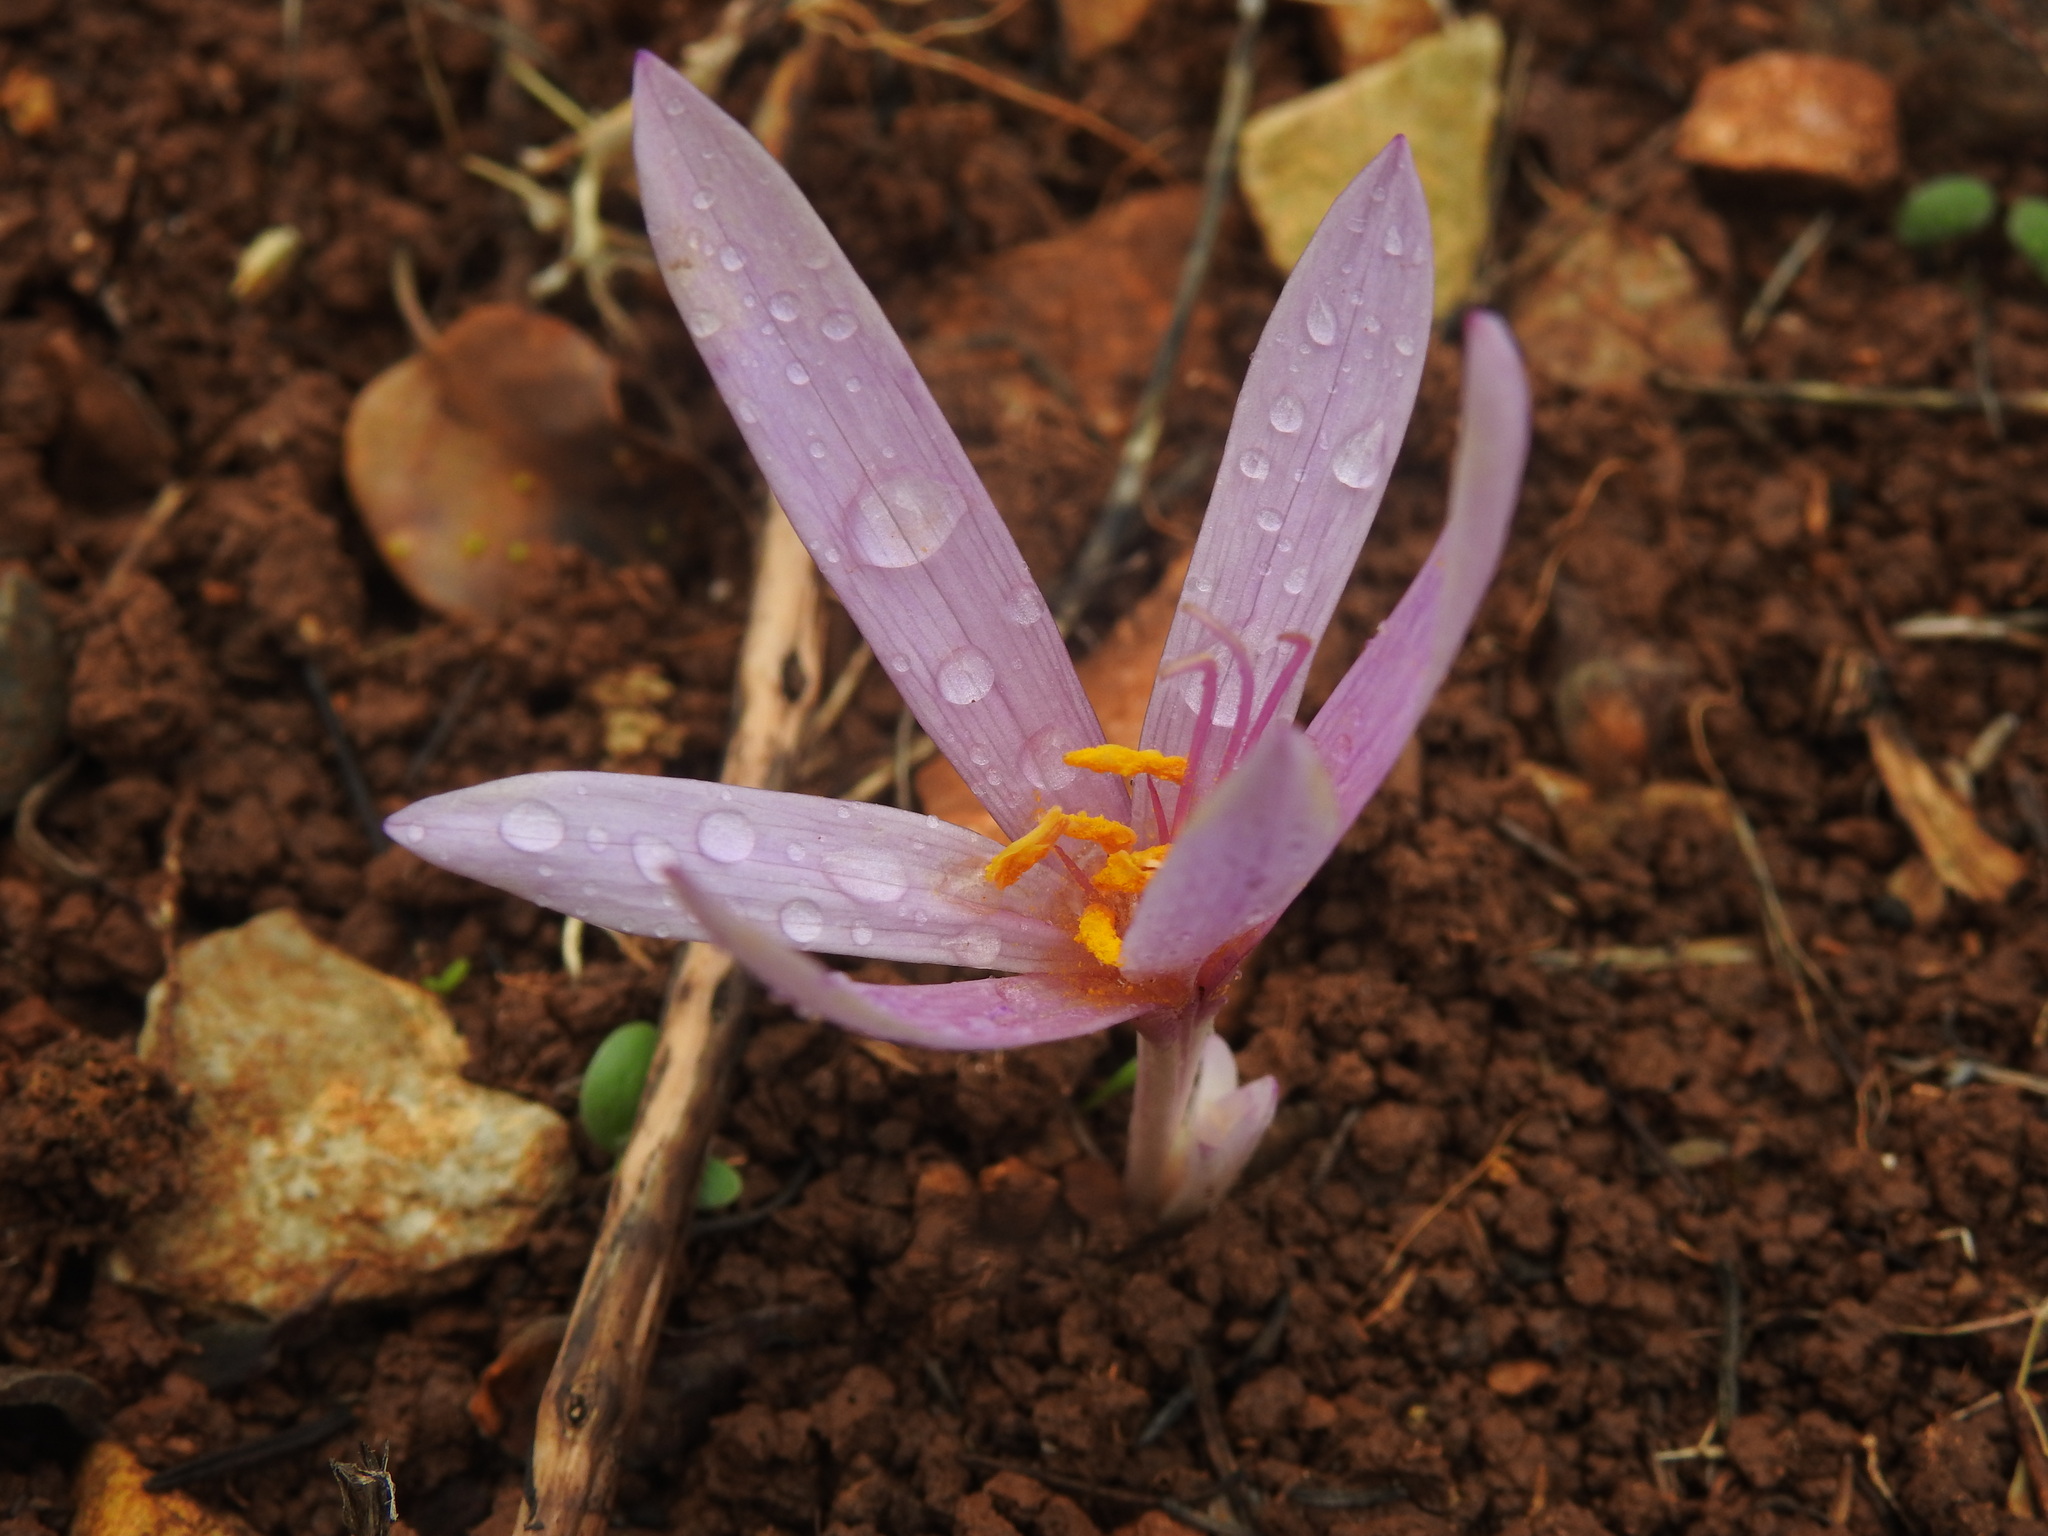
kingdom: Plantae
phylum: Tracheophyta
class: Liliopsida
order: Liliales
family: Colchicaceae
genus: Colchicum
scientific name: Colchicum lusitanum
